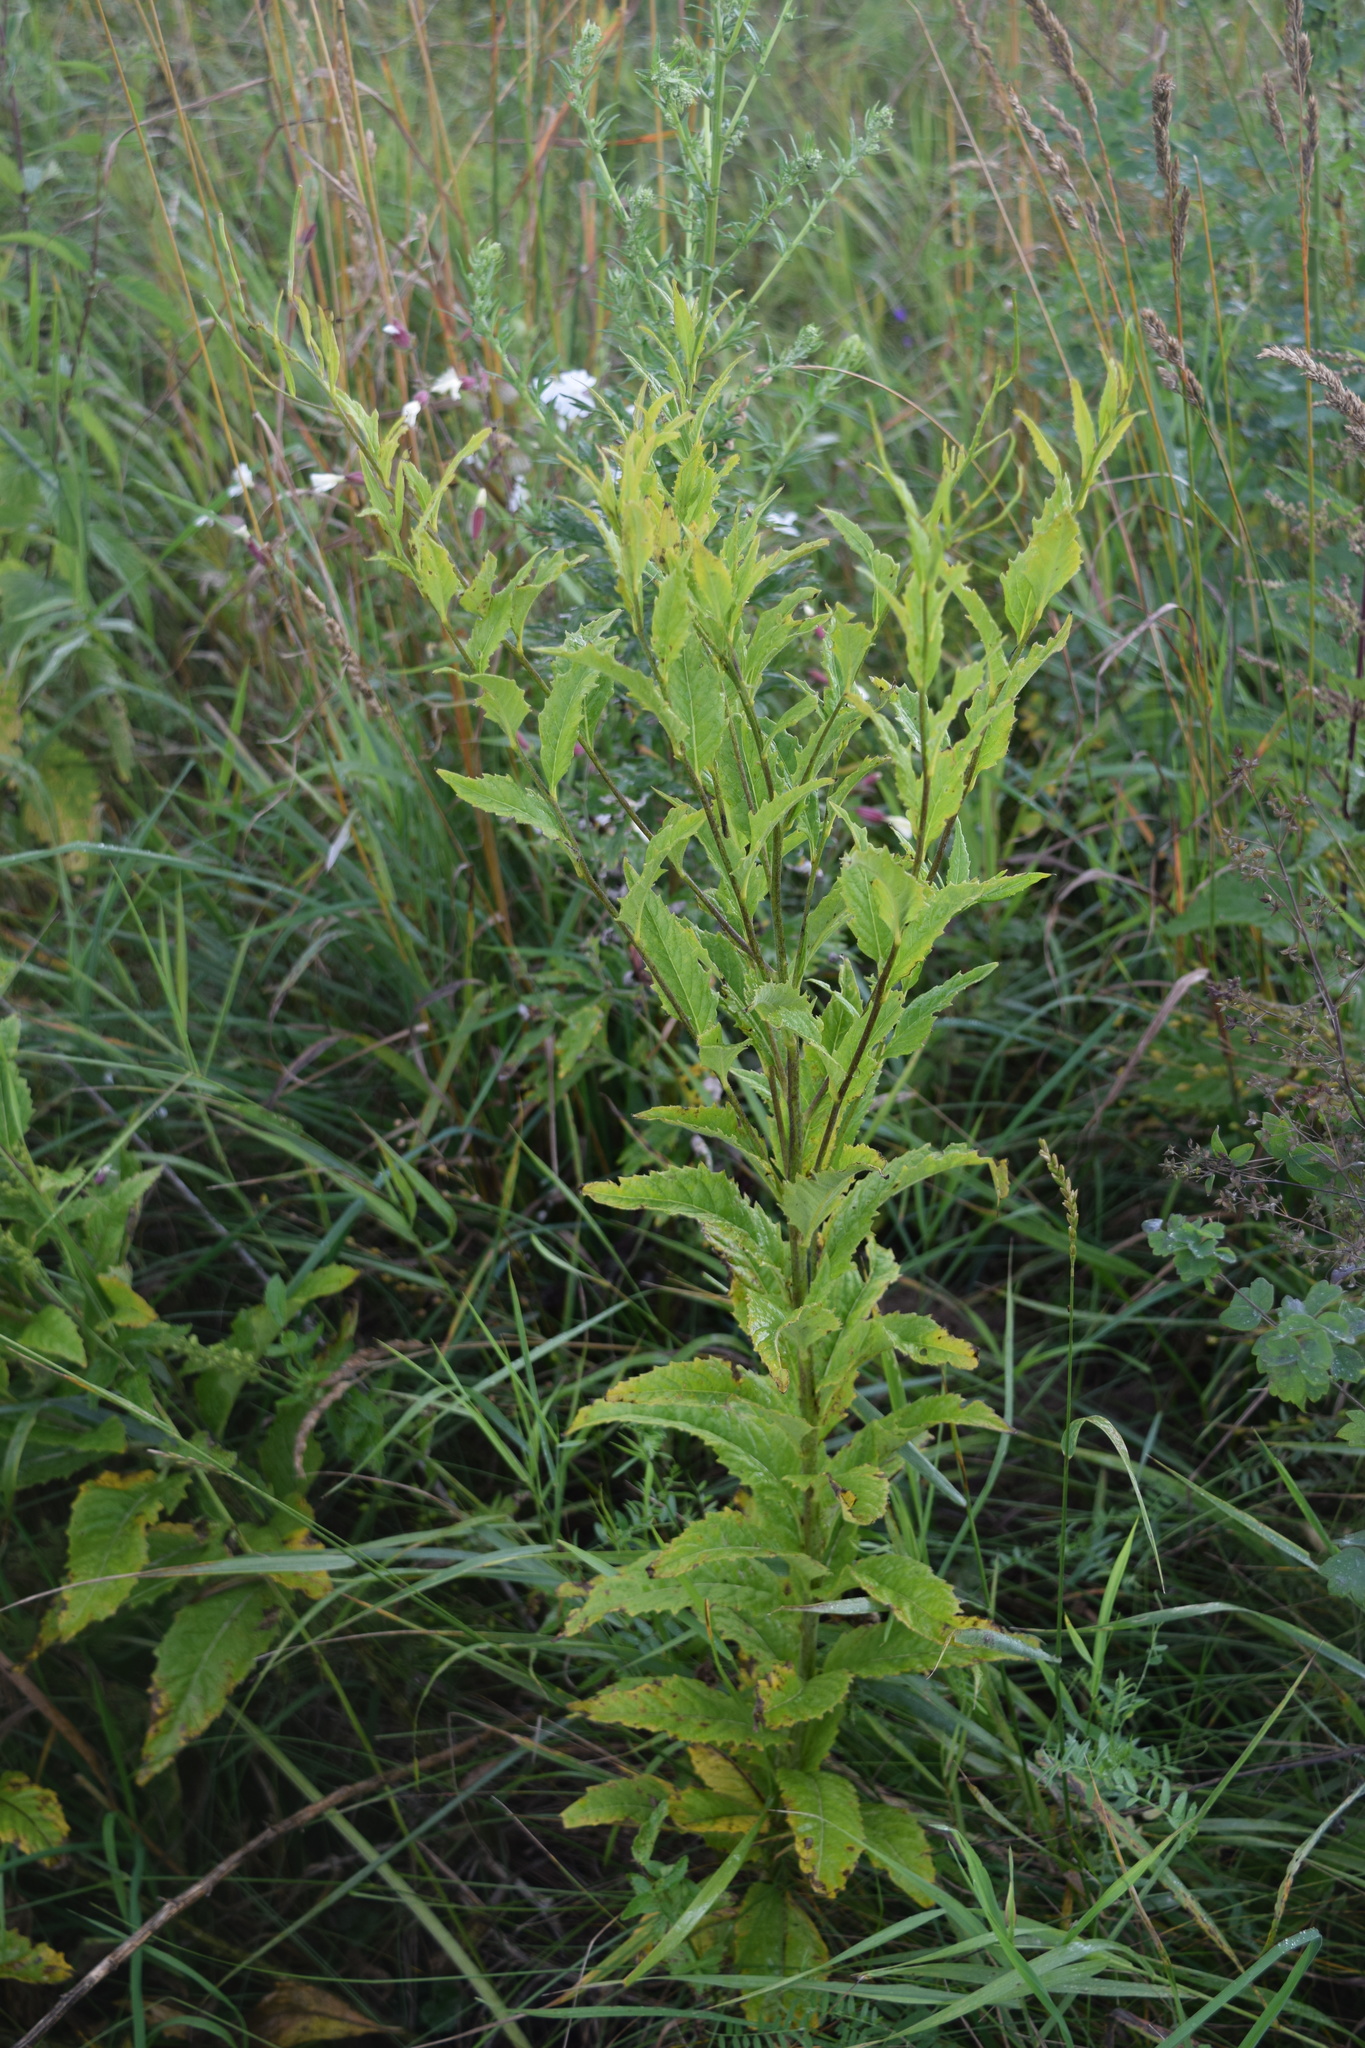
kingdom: Plantae
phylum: Tracheophyta
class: Magnoliopsida
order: Brassicales
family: Brassicaceae
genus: Sisymbrium
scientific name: Sisymbrium strictissimum
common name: Perennial rocket
